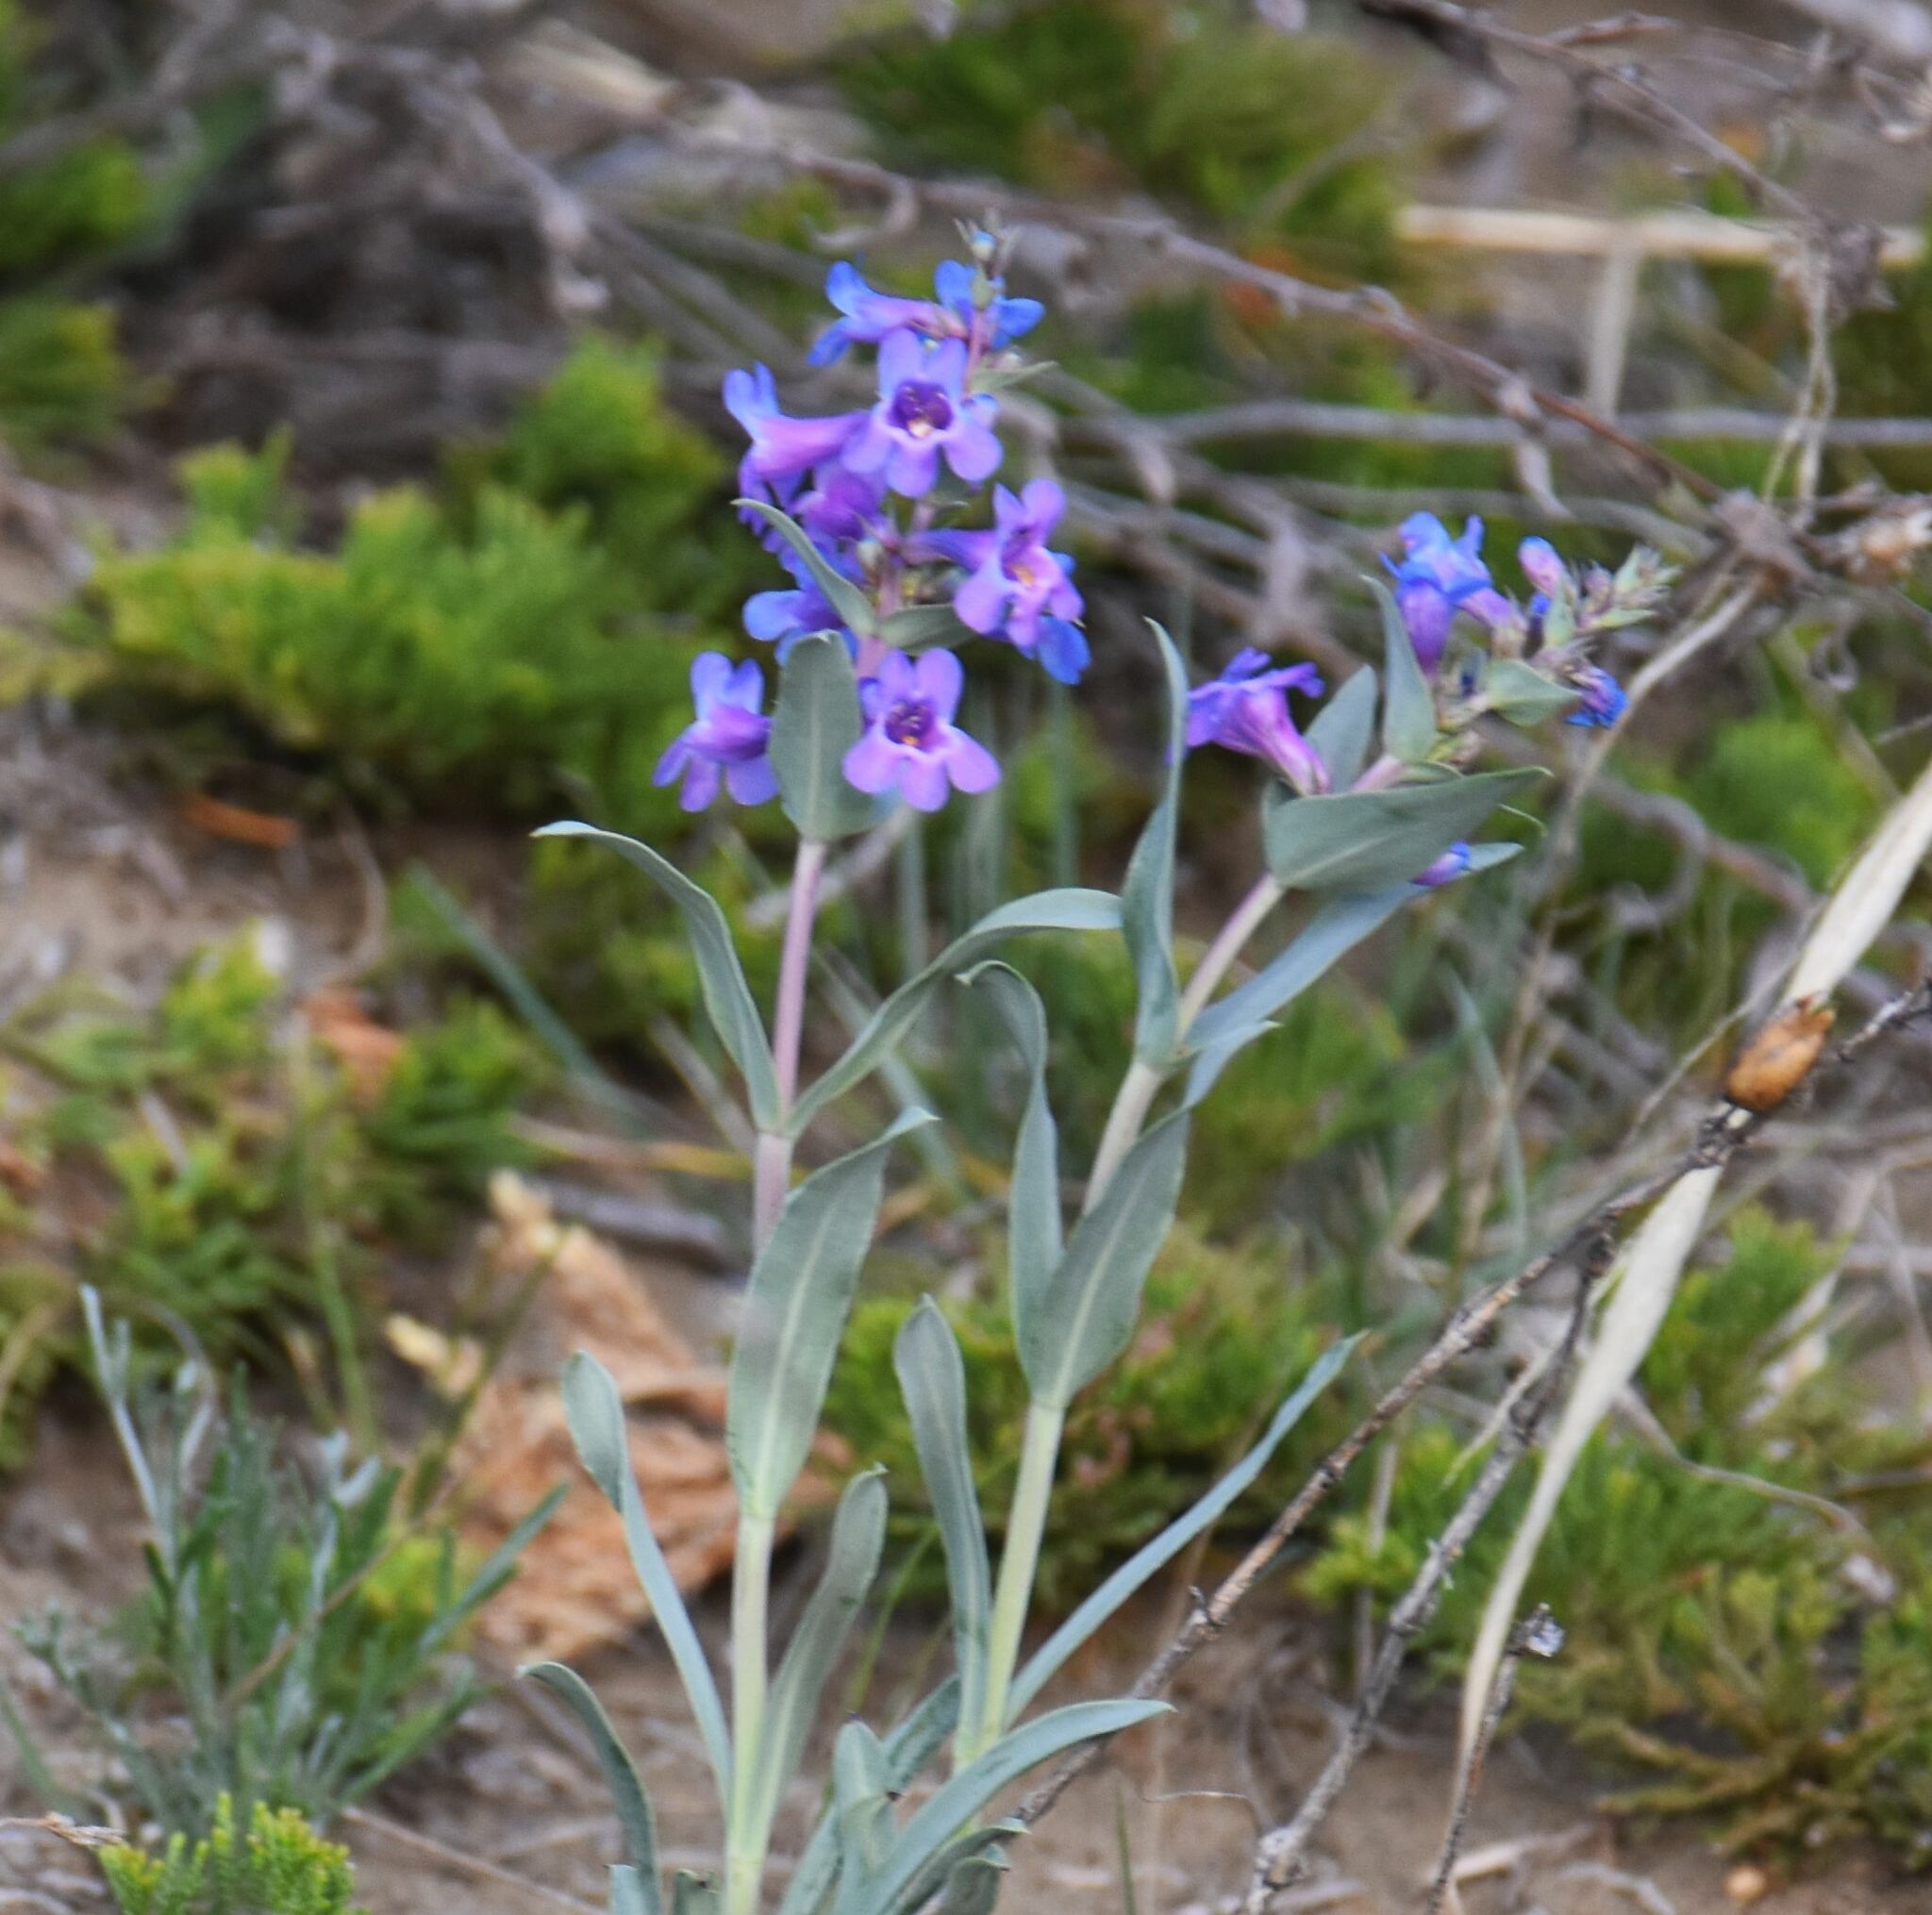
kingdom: Plantae
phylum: Tracheophyta
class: Magnoliopsida
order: Lamiales
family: Plantaginaceae
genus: Penstemon
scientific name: Penstemon nitidus
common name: Shining penstemon
